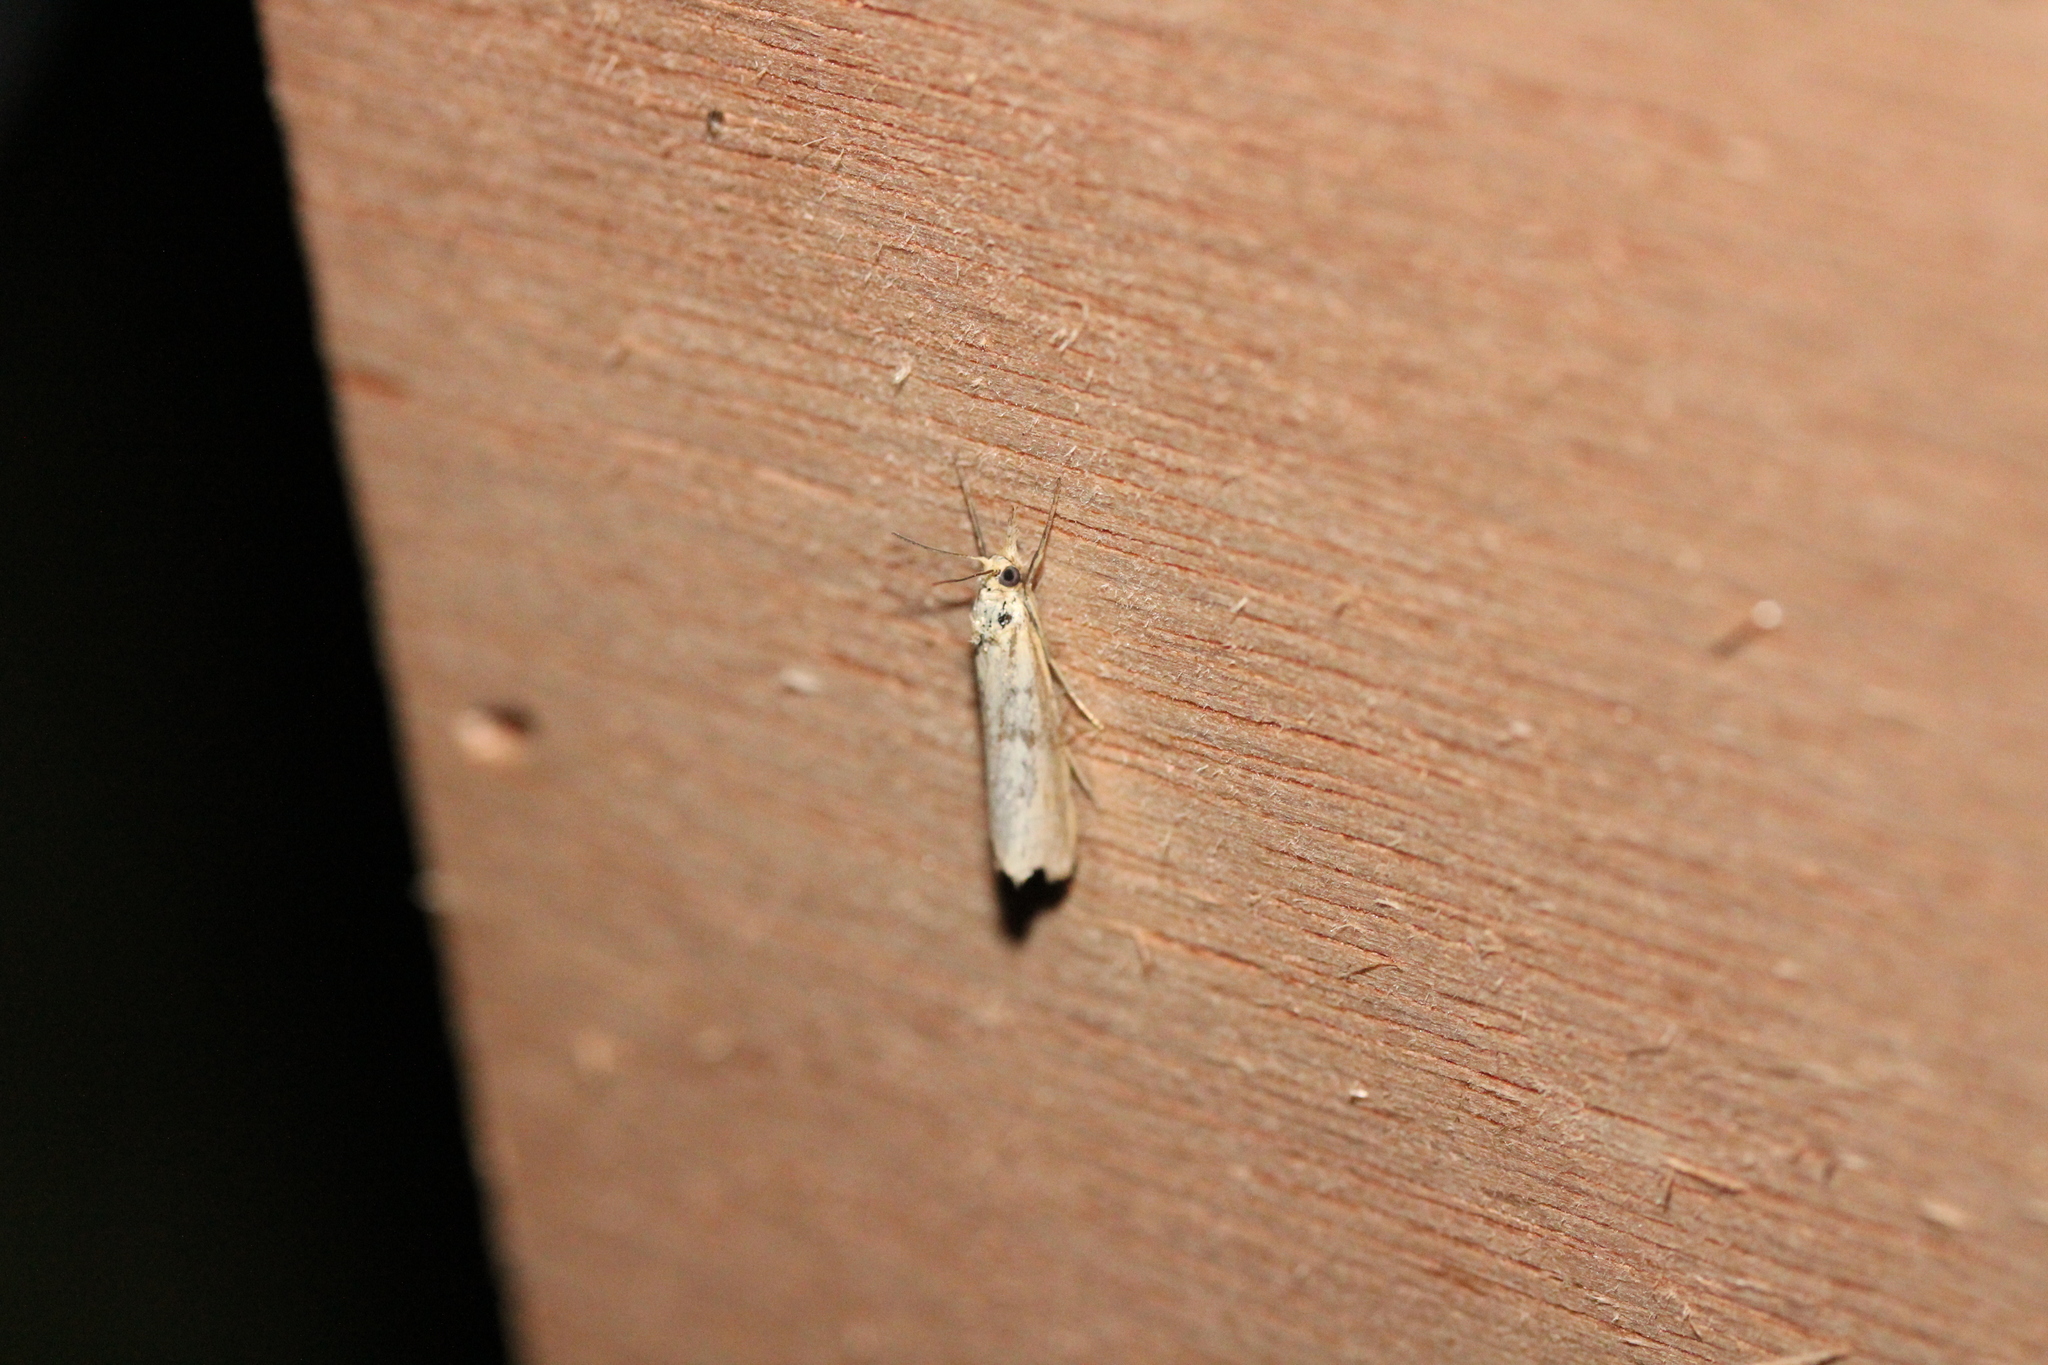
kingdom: Animalia
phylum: Arthropoda
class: Insecta
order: Lepidoptera
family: Crambidae
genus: Agriphila
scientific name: Agriphila inquinatella
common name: Barred grass-veneer
